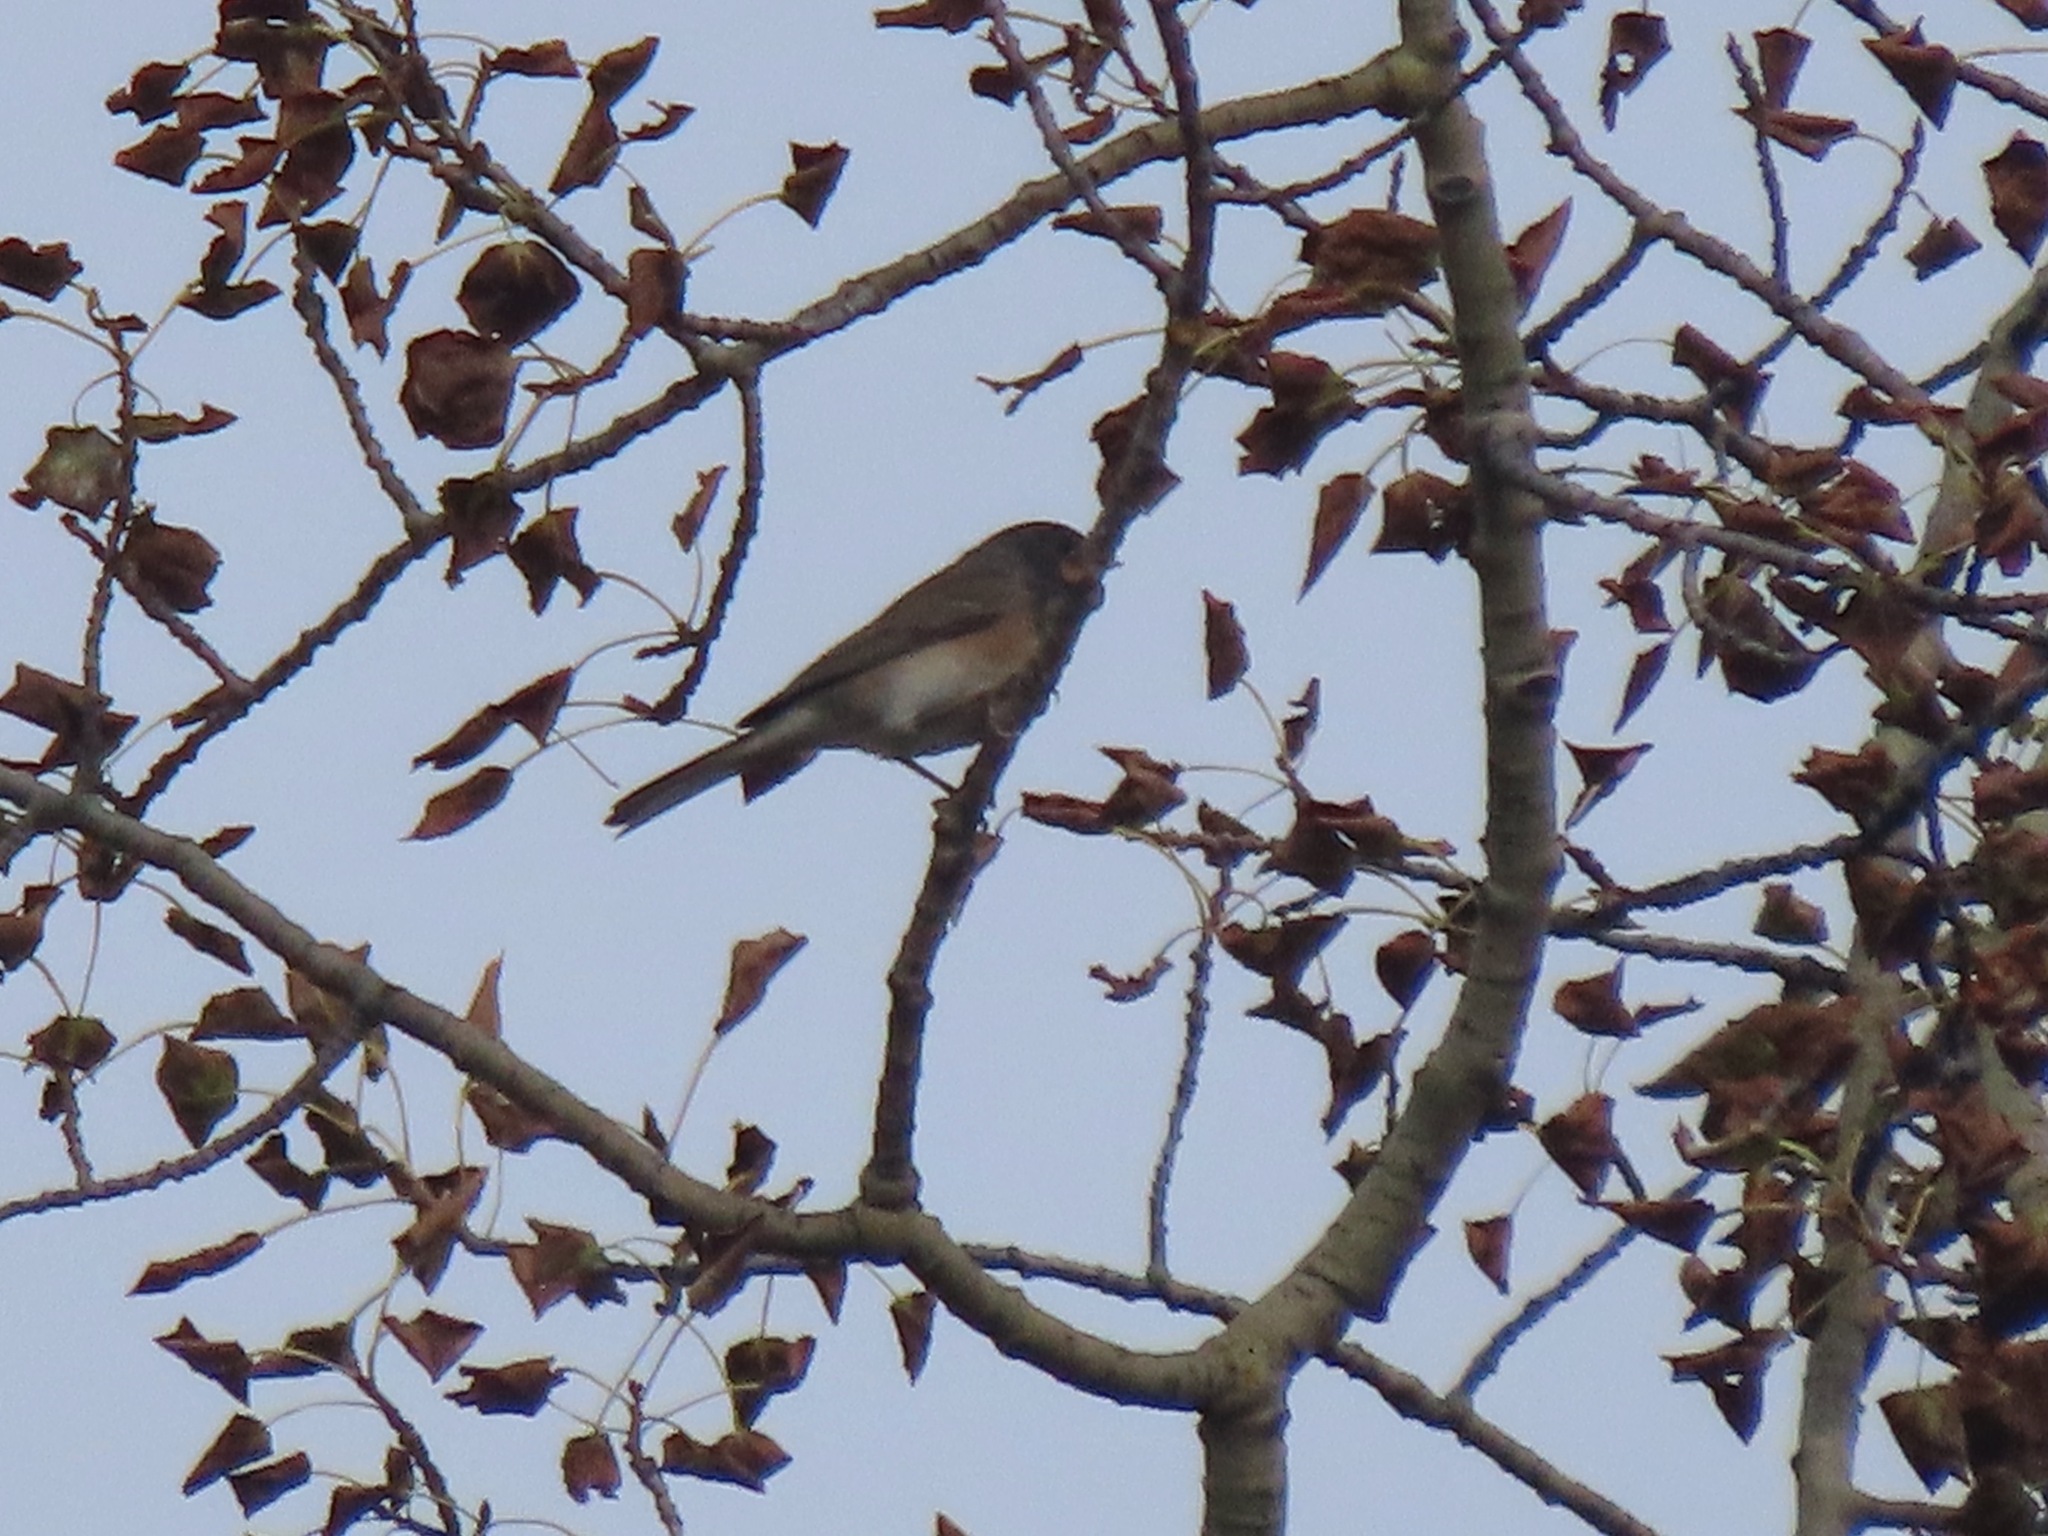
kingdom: Animalia
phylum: Chordata
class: Aves
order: Passeriformes
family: Passerellidae
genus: Junco
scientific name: Junco hyemalis
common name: Dark-eyed junco
